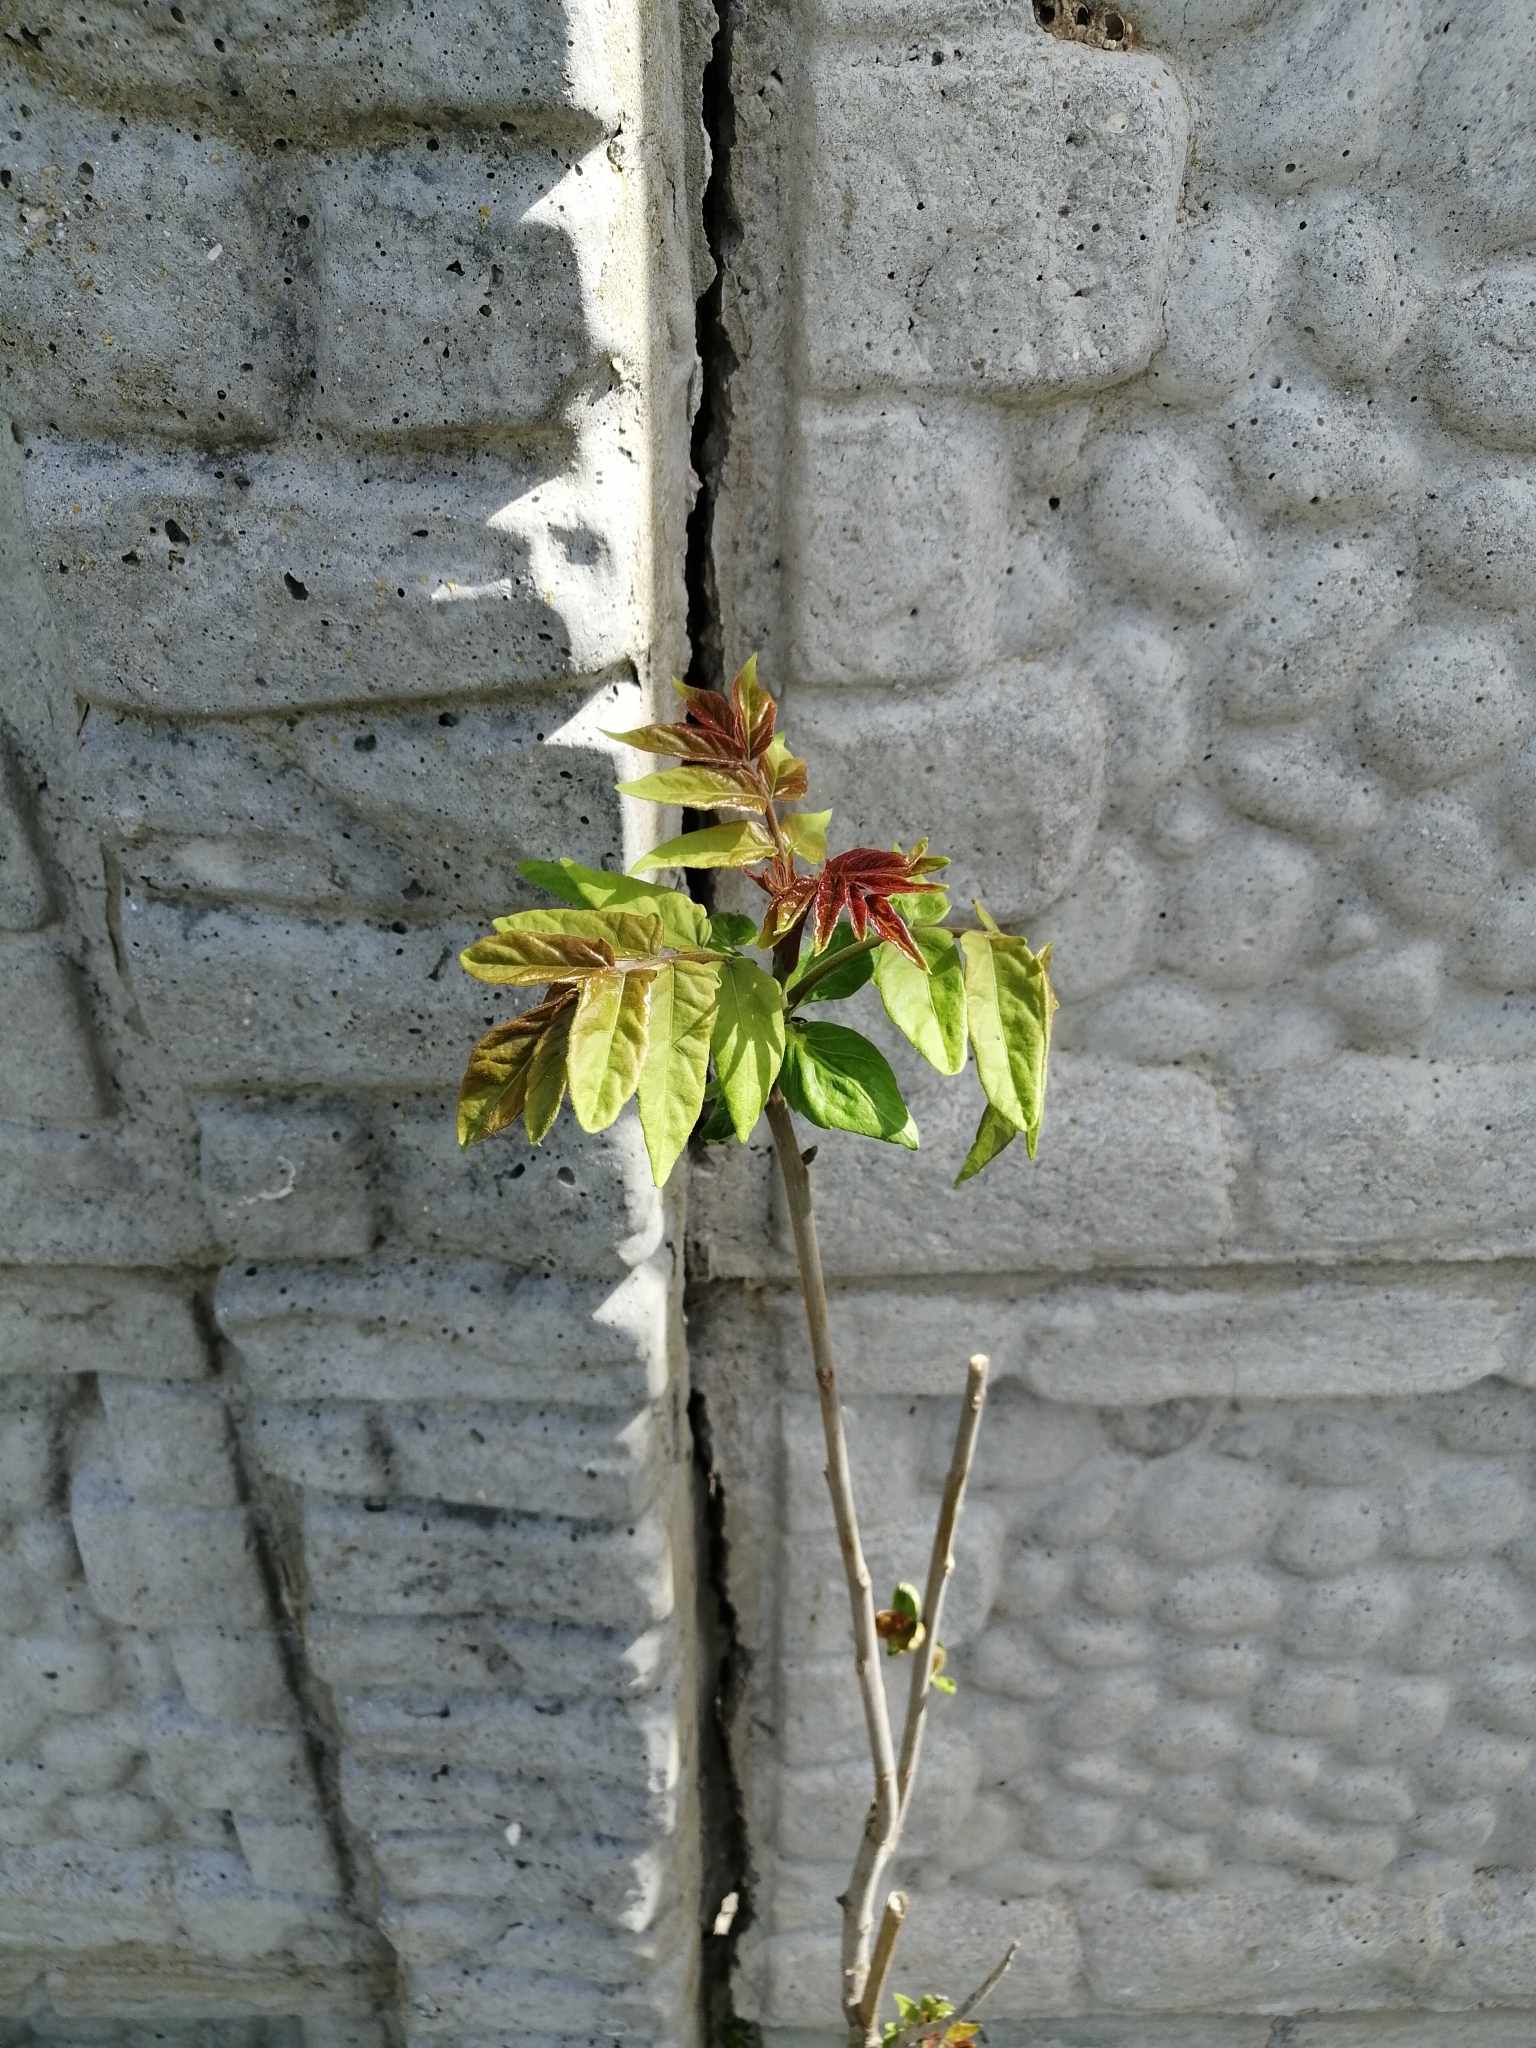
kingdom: Plantae
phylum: Tracheophyta
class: Magnoliopsida
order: Sapindales
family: Simaroubaceae
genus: Ailanthus
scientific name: Ailanthus altissima
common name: Tree-of-heaven
